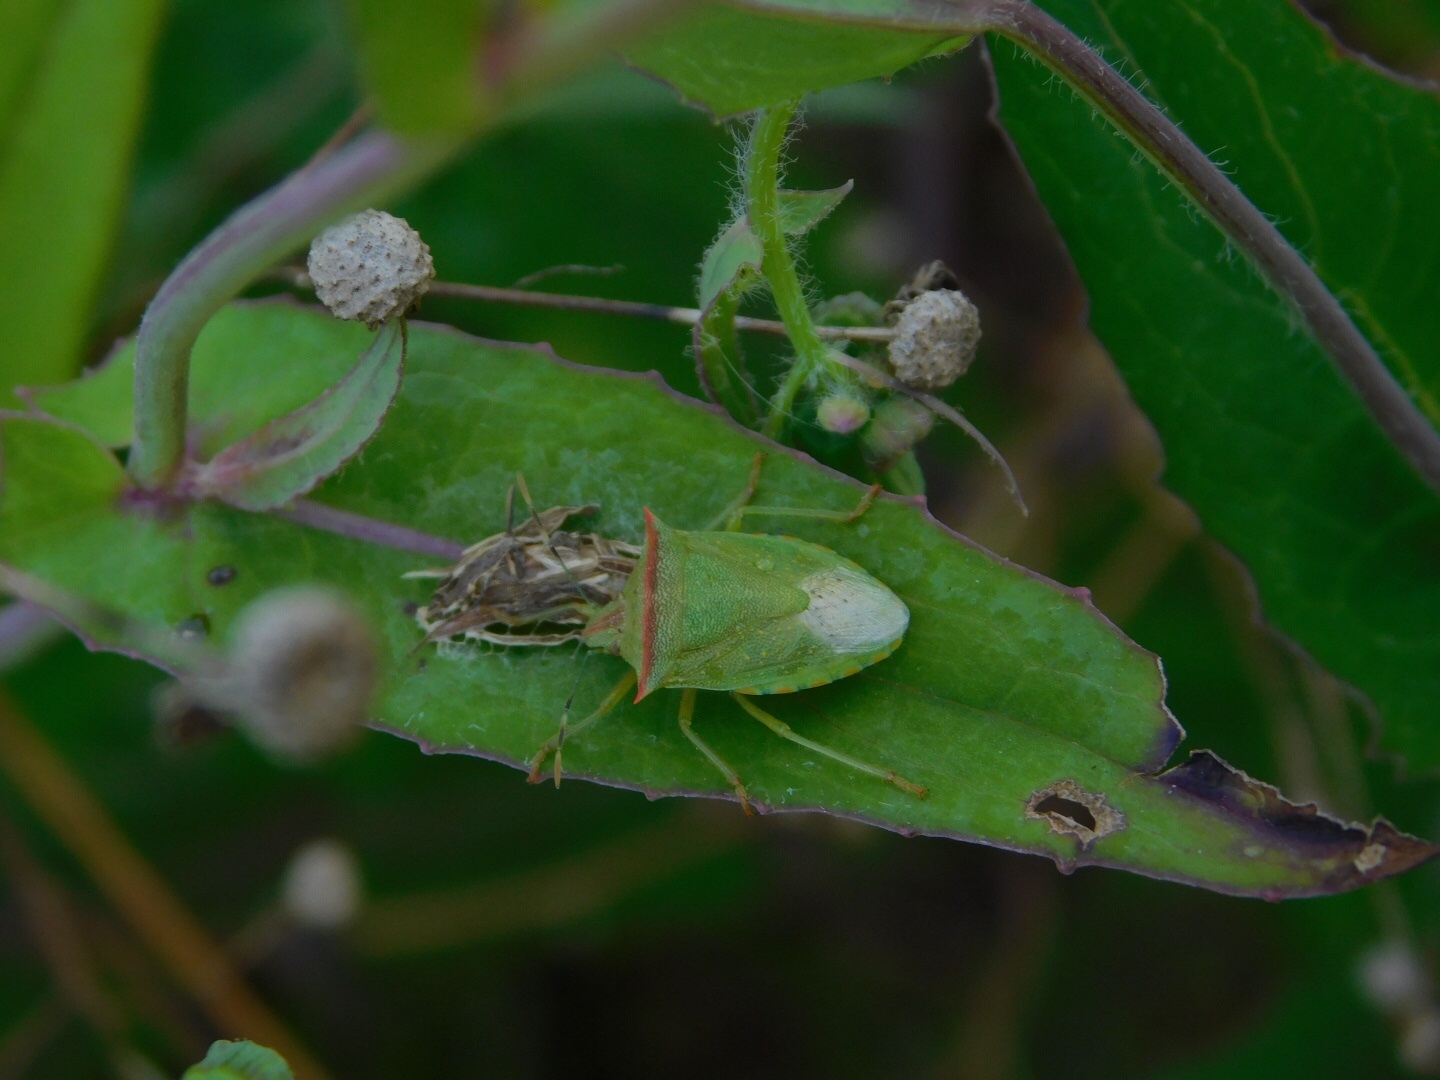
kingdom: Animalia
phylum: Arthropoda
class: Insecta
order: Hemiptera
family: Pentatomidae
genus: Thyanta
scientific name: Thyanta perditor
